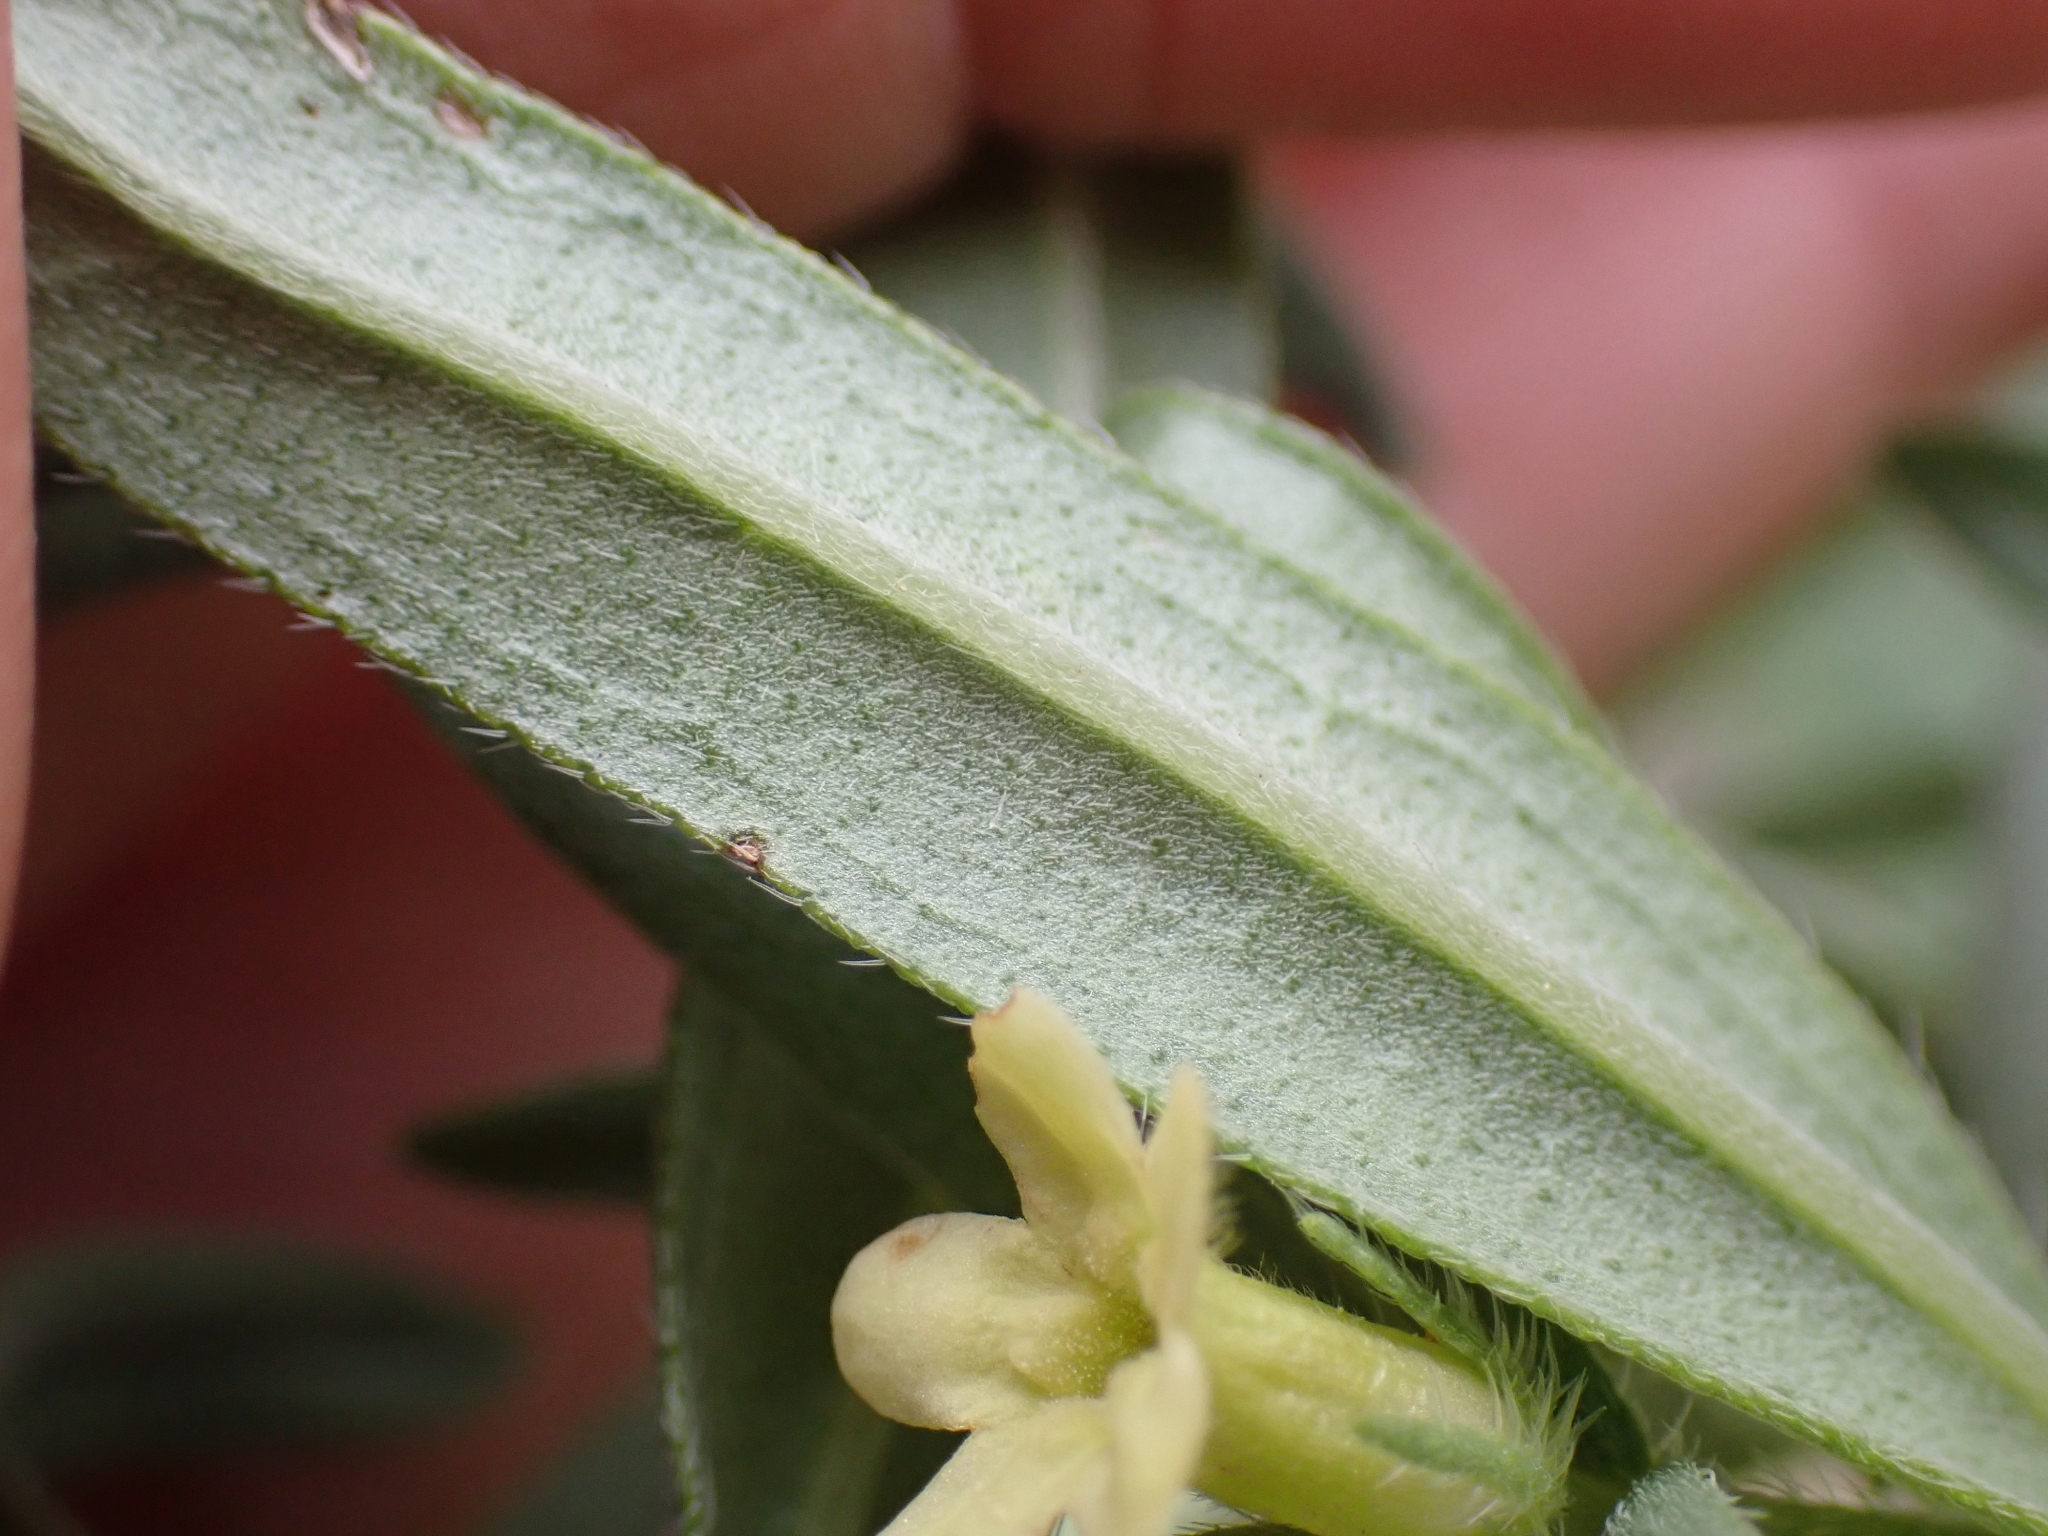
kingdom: Plantae
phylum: Tracheophyta
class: Magnoliopsida
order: Boraginales
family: Boraginaceae
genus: Lithospermum
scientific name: Lithospermum ruderale
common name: Western gromwell
